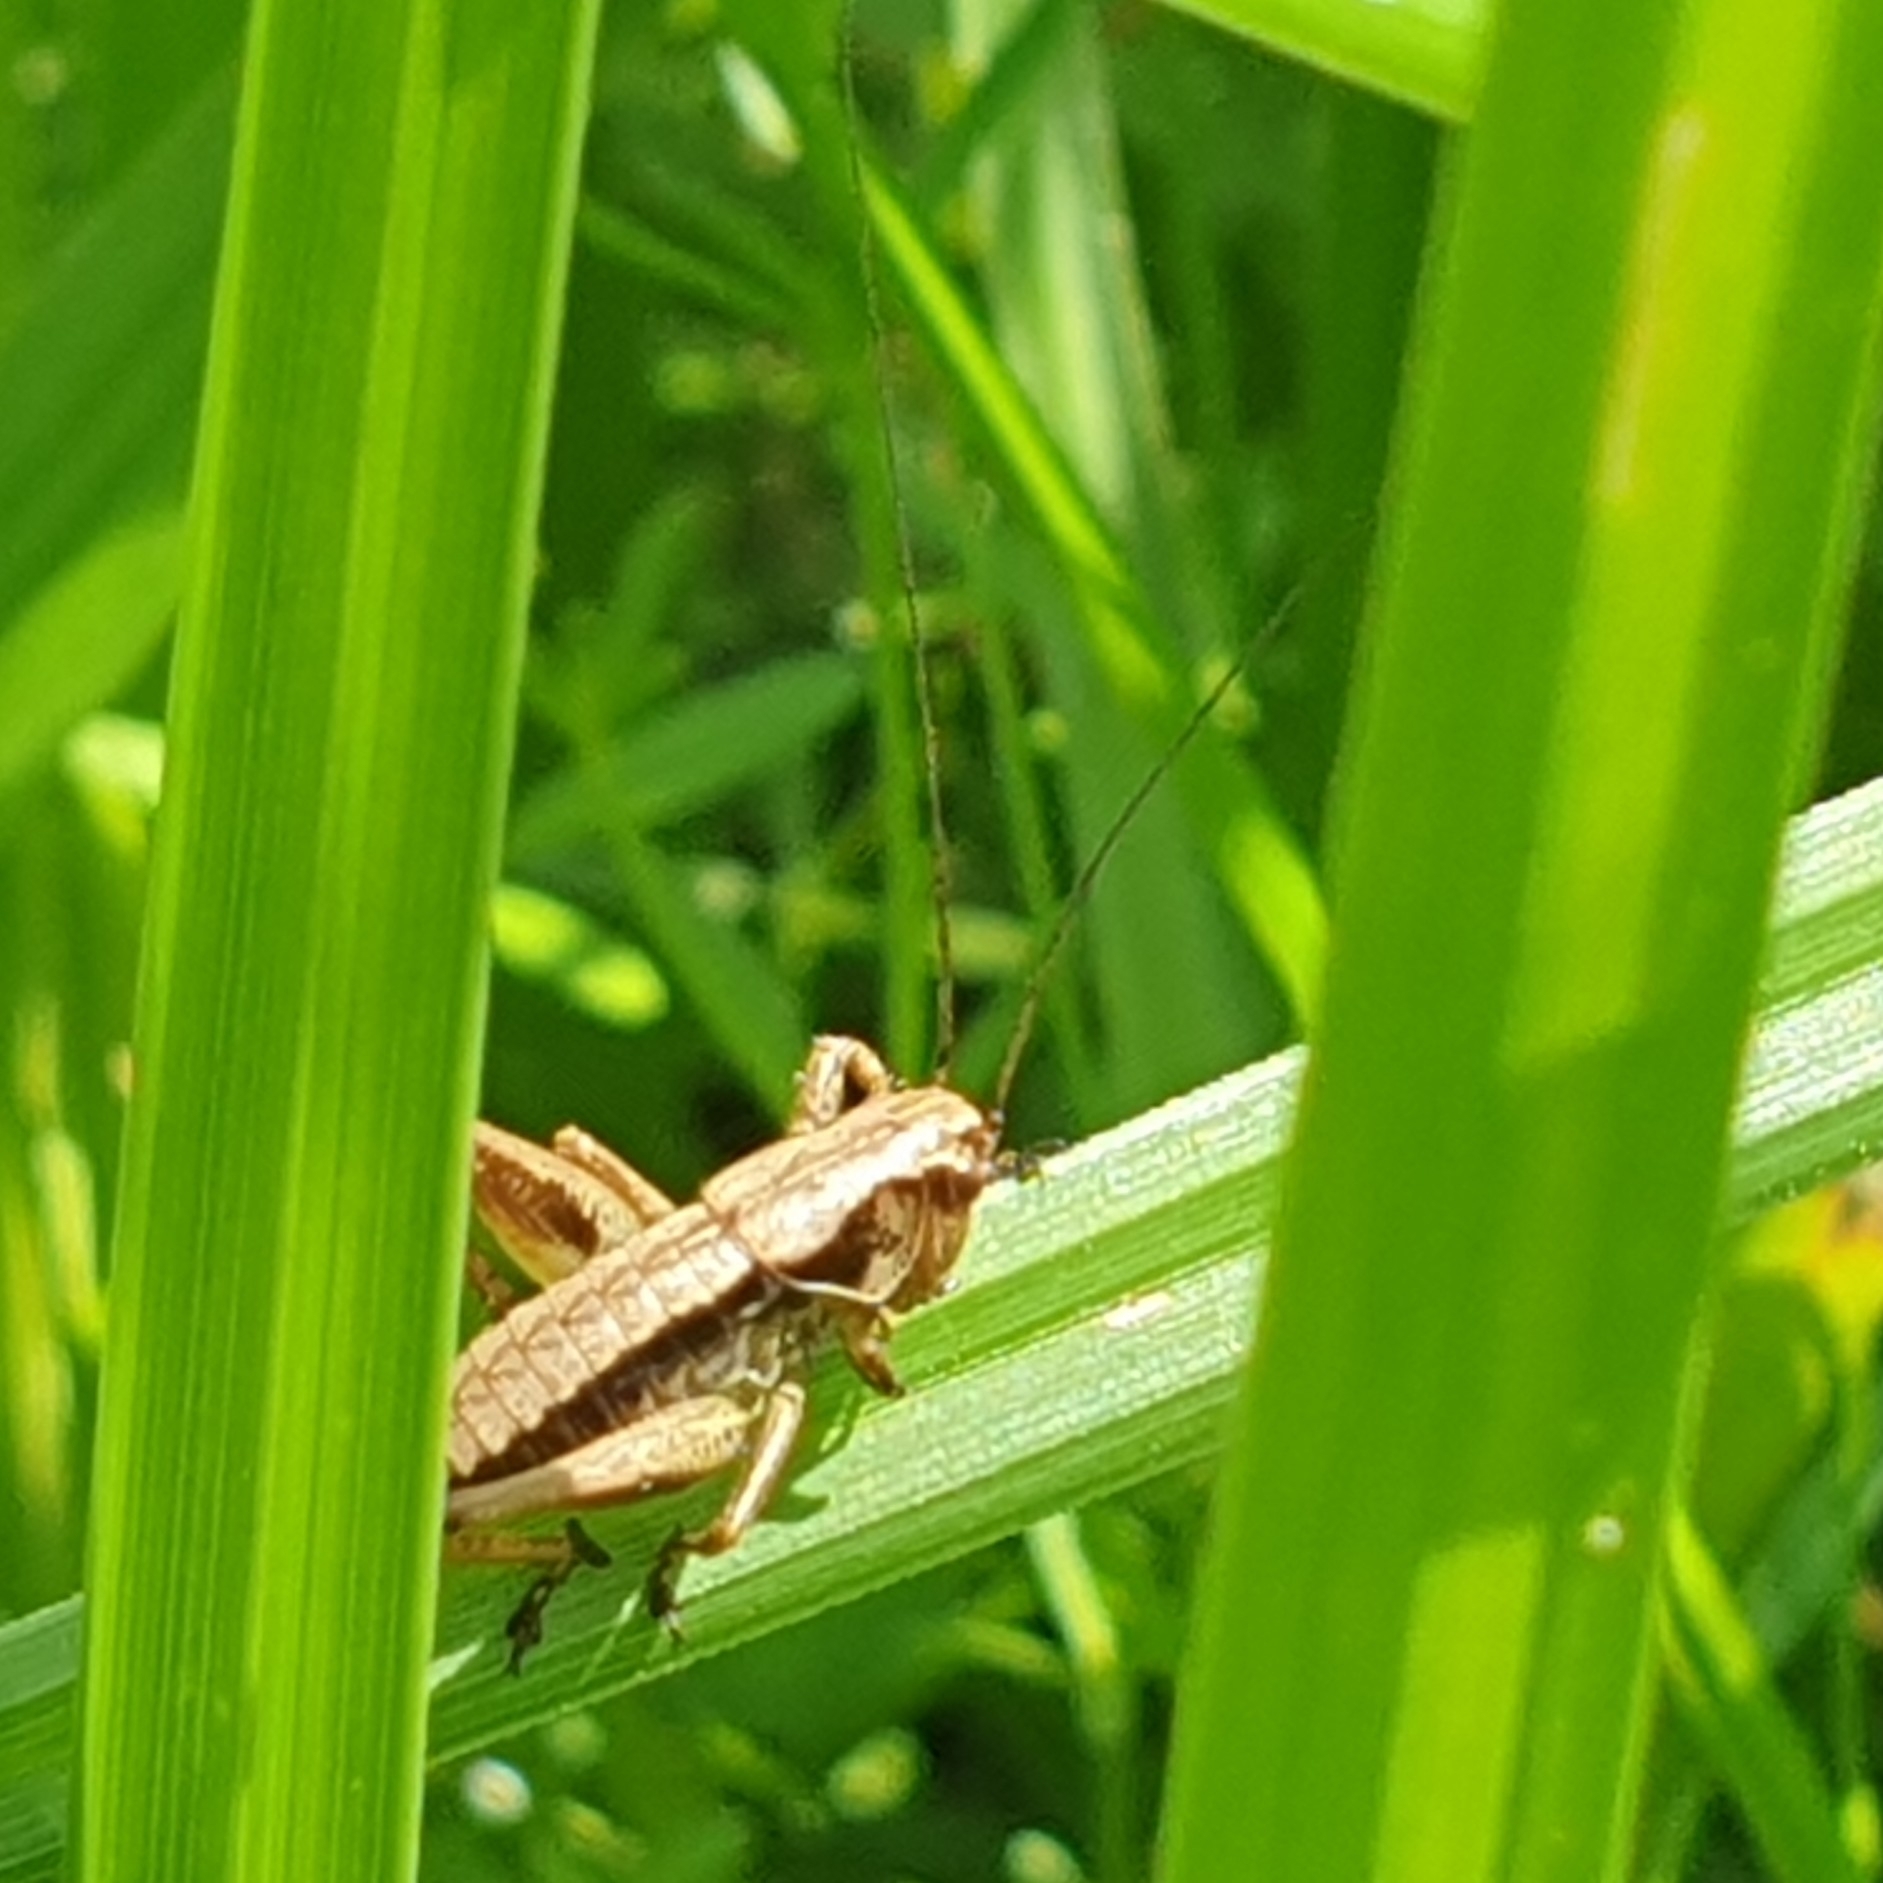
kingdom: Animalia
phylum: Arthropoda
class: Insecta
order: Orthoptera
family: Tettigoniidae
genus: Pholidoptera
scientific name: Pholidoptera griseoaptera
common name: Dark bush-cricket
